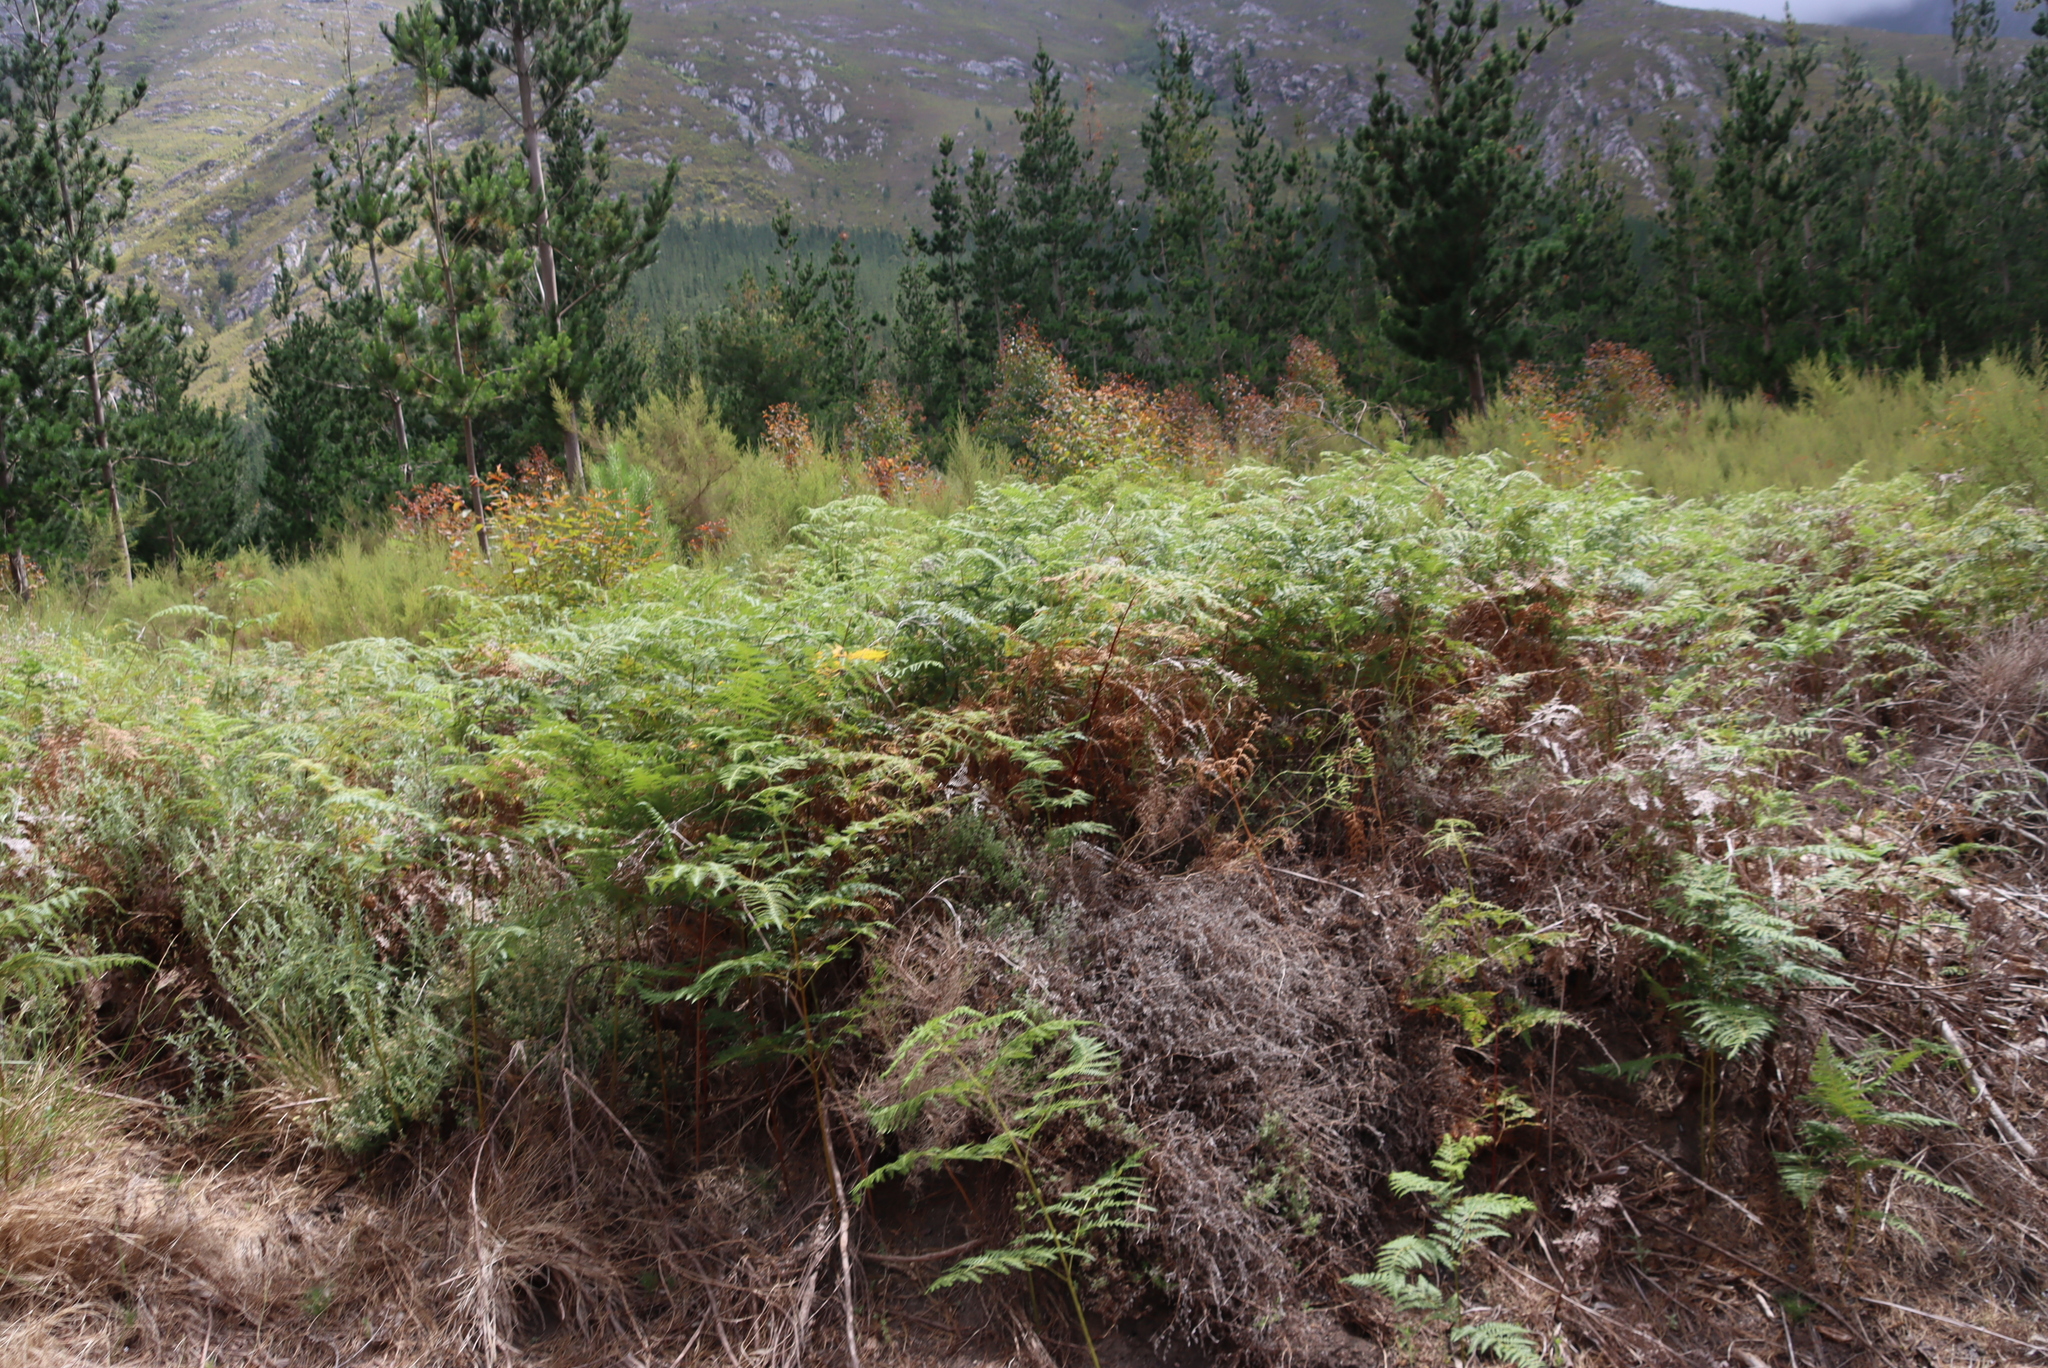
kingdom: Plantae
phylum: Tracheophyta
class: Polypodiopsida
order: Polypodiales
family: Dennstaedtiaceae
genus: Pteridium
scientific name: Pteridium aquilinum
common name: Bracken
